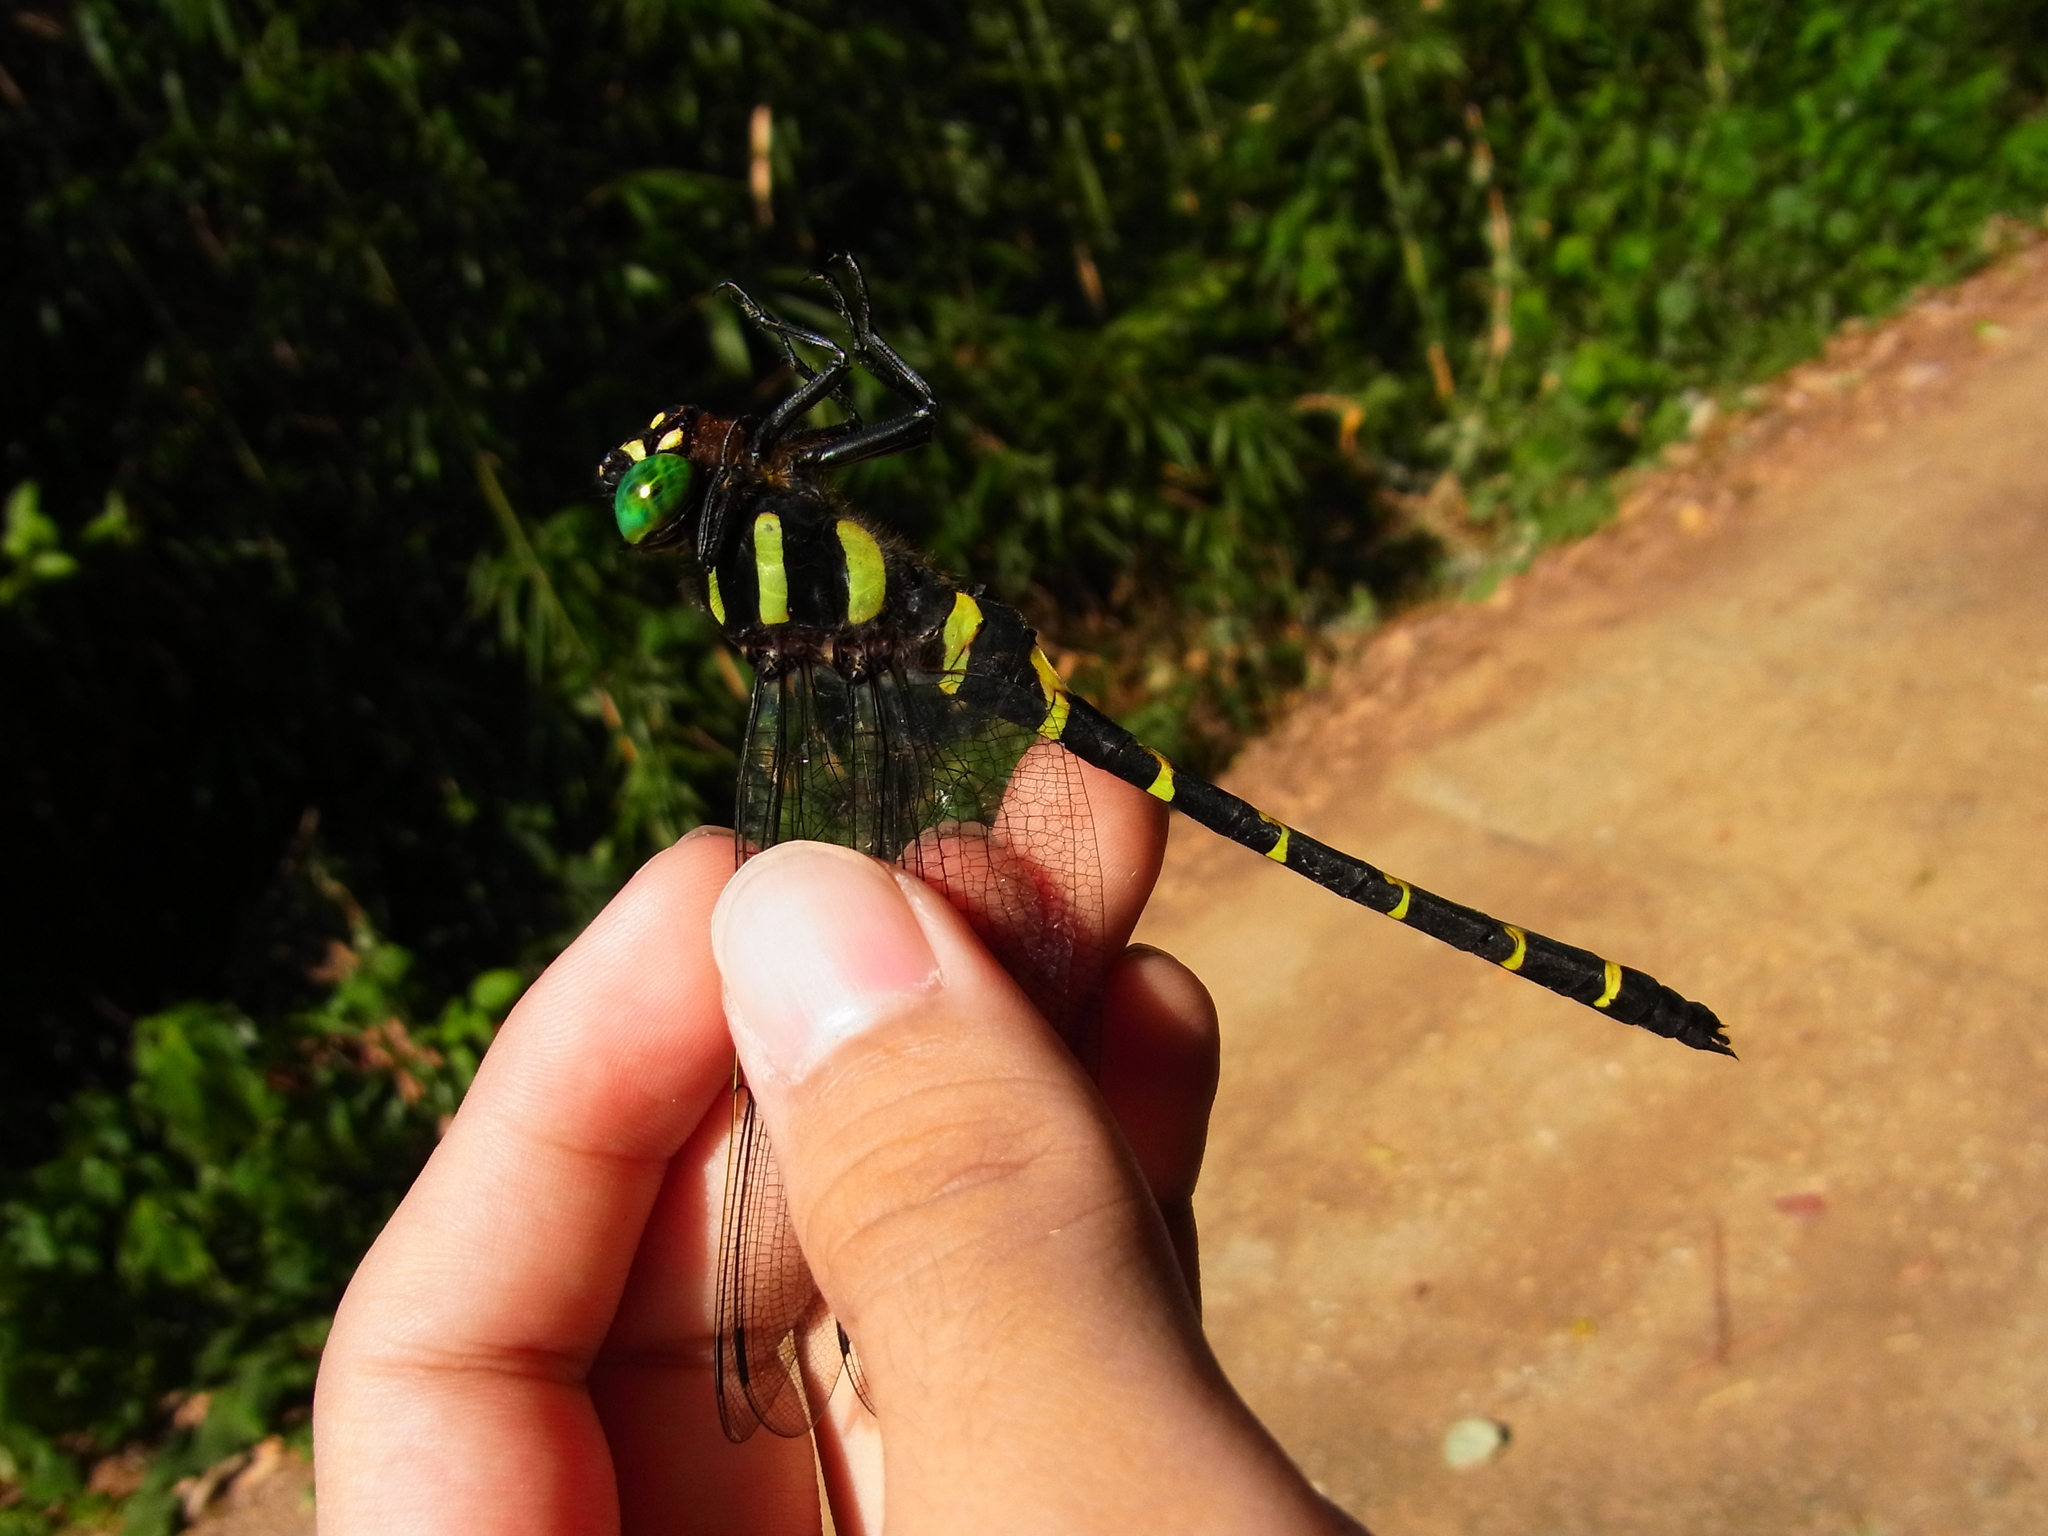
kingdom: Animalia
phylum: Arthropoda
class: Insecta
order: Odonata
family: Cordulegastridae
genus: Anotogaster
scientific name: Anotogaster sieboldii
